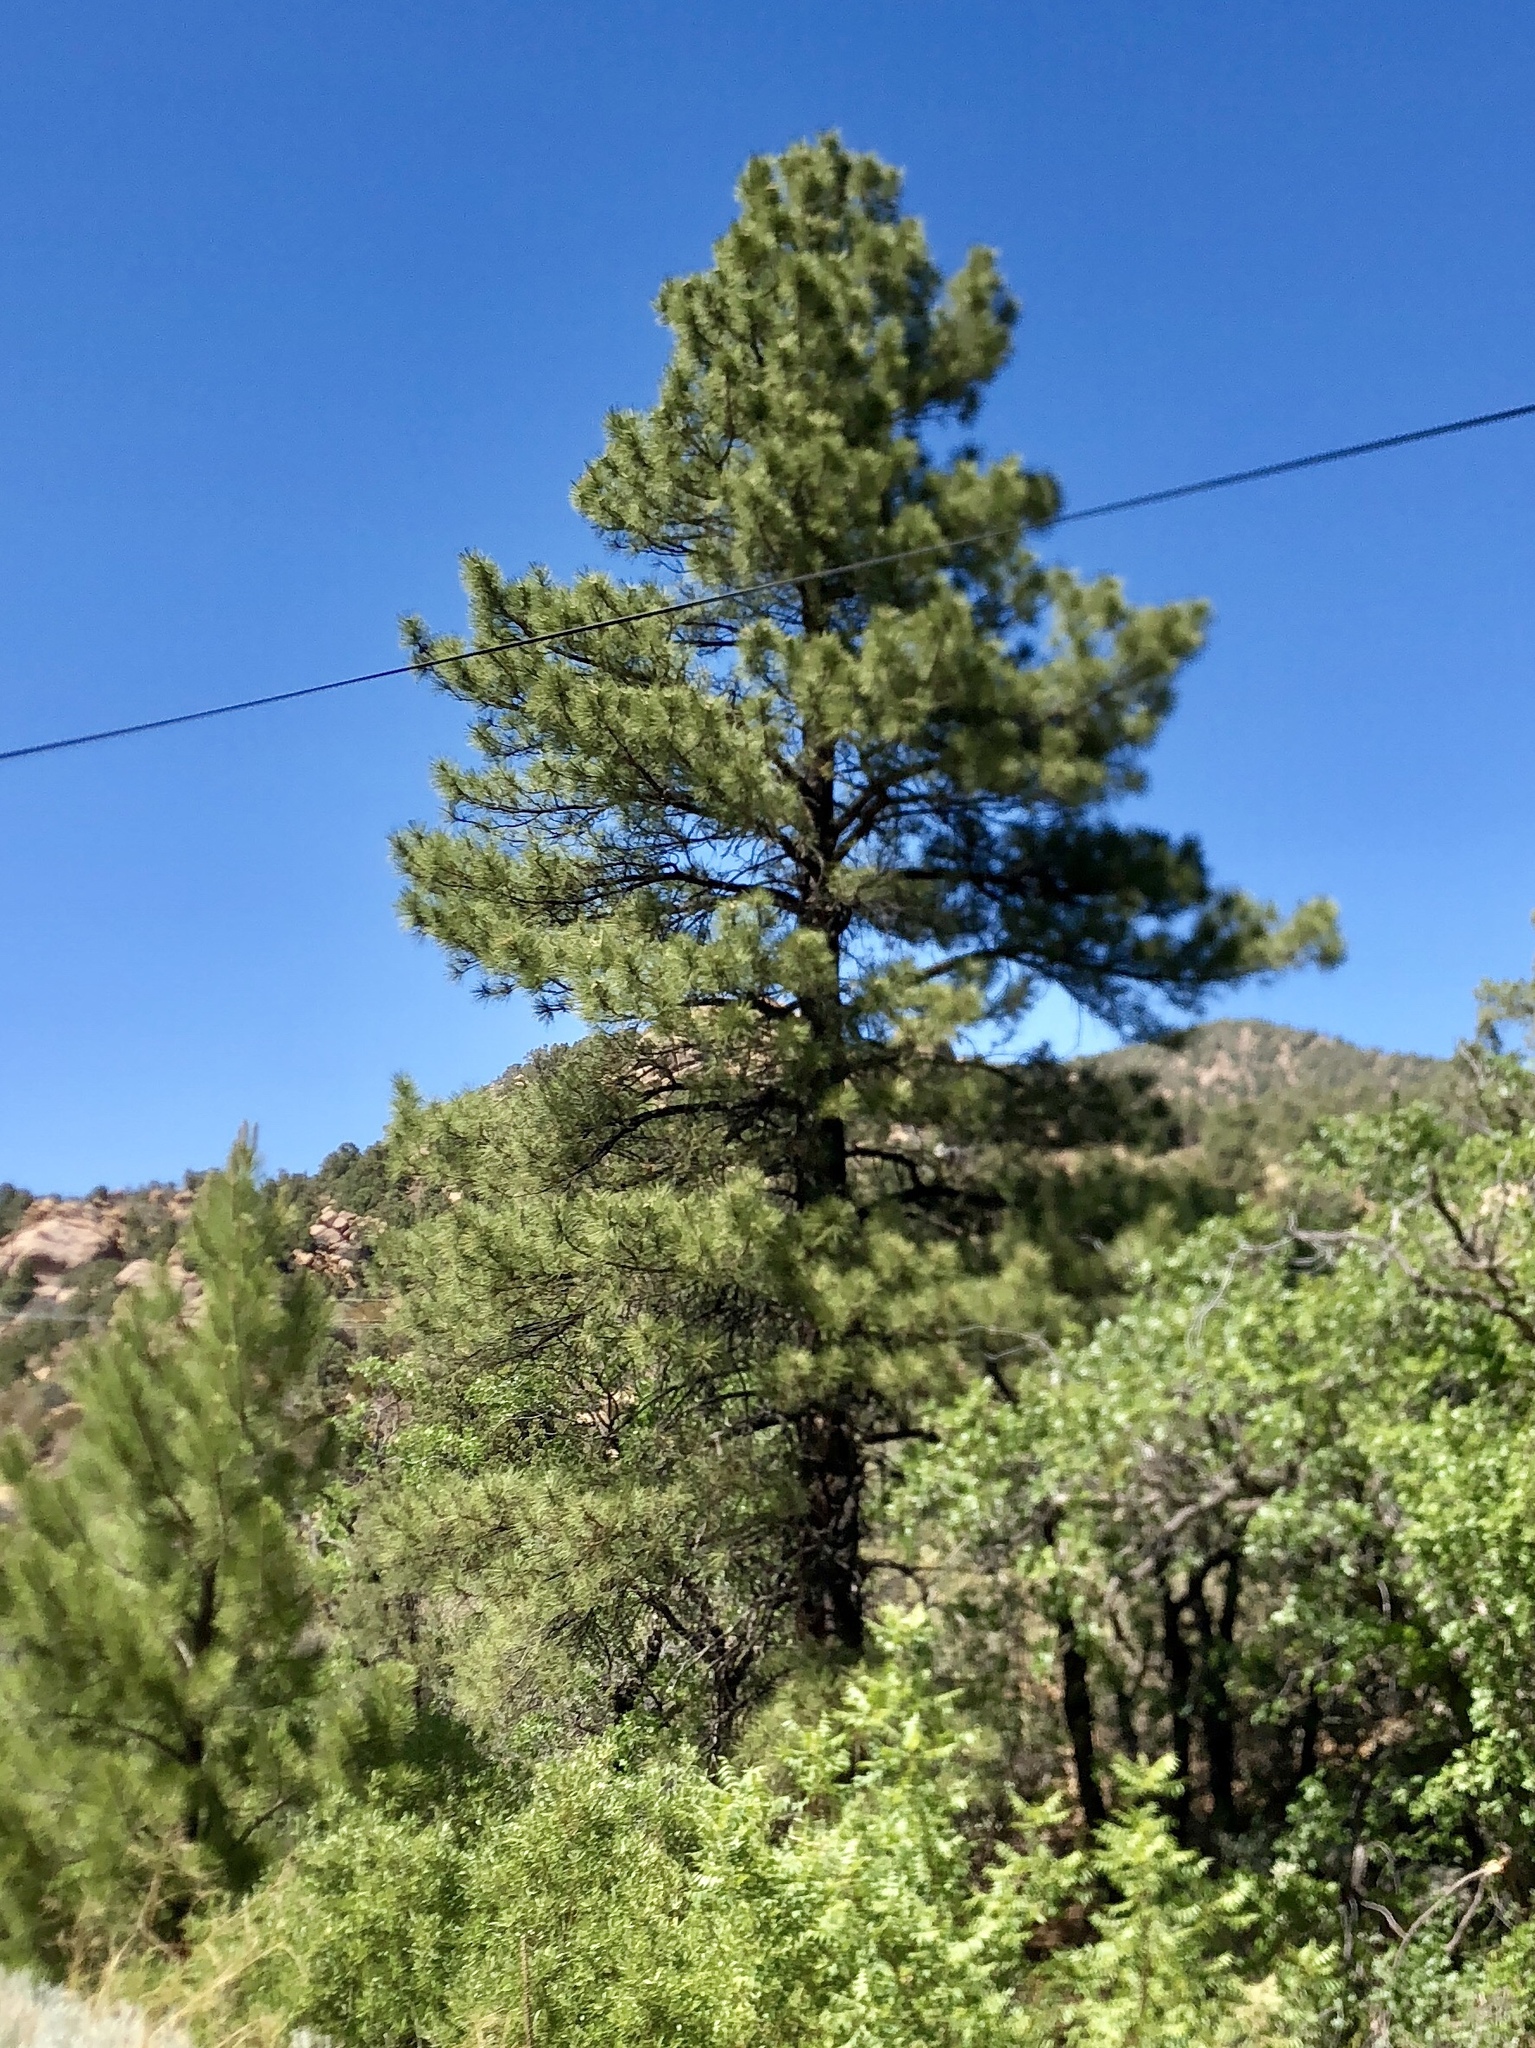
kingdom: Plantae
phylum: Tracheophyta
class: Pinopsida
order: Pinales
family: Pinaceae
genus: Pinus
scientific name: Pinus ponderosa
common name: Western yellow-pine
